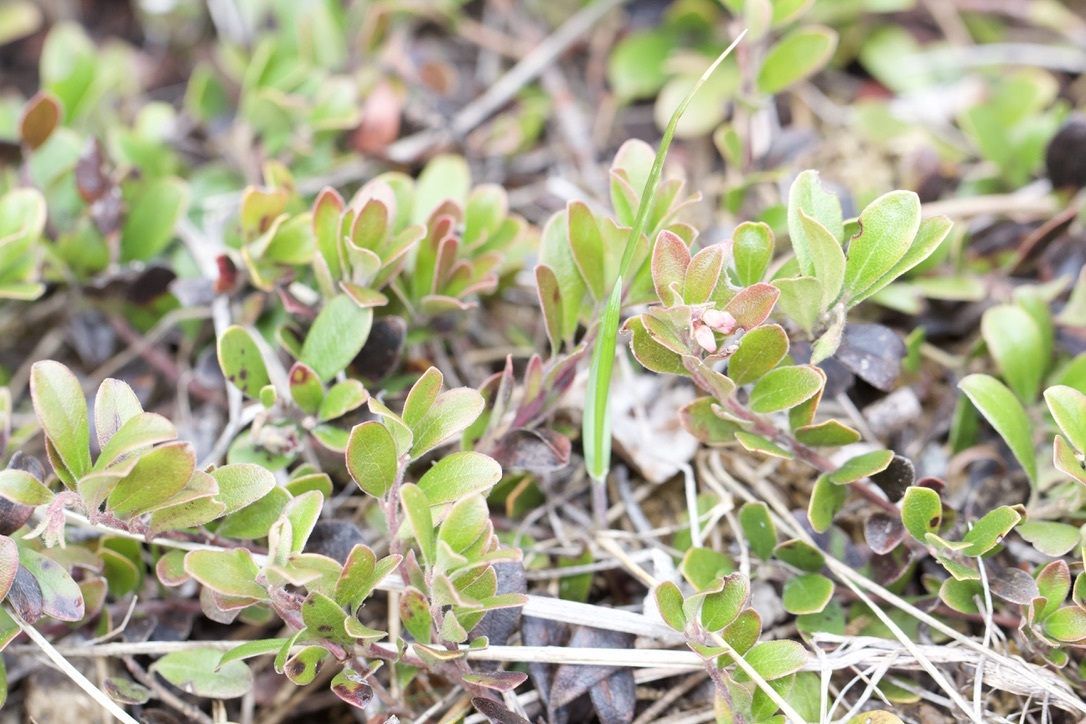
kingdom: Plantae
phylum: Tracheophyta
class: Magnoliopsida
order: Ericales
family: Ericaceae
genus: Arctostaphylos
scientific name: Arctostaphylos uva-ursi
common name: Bearberry
